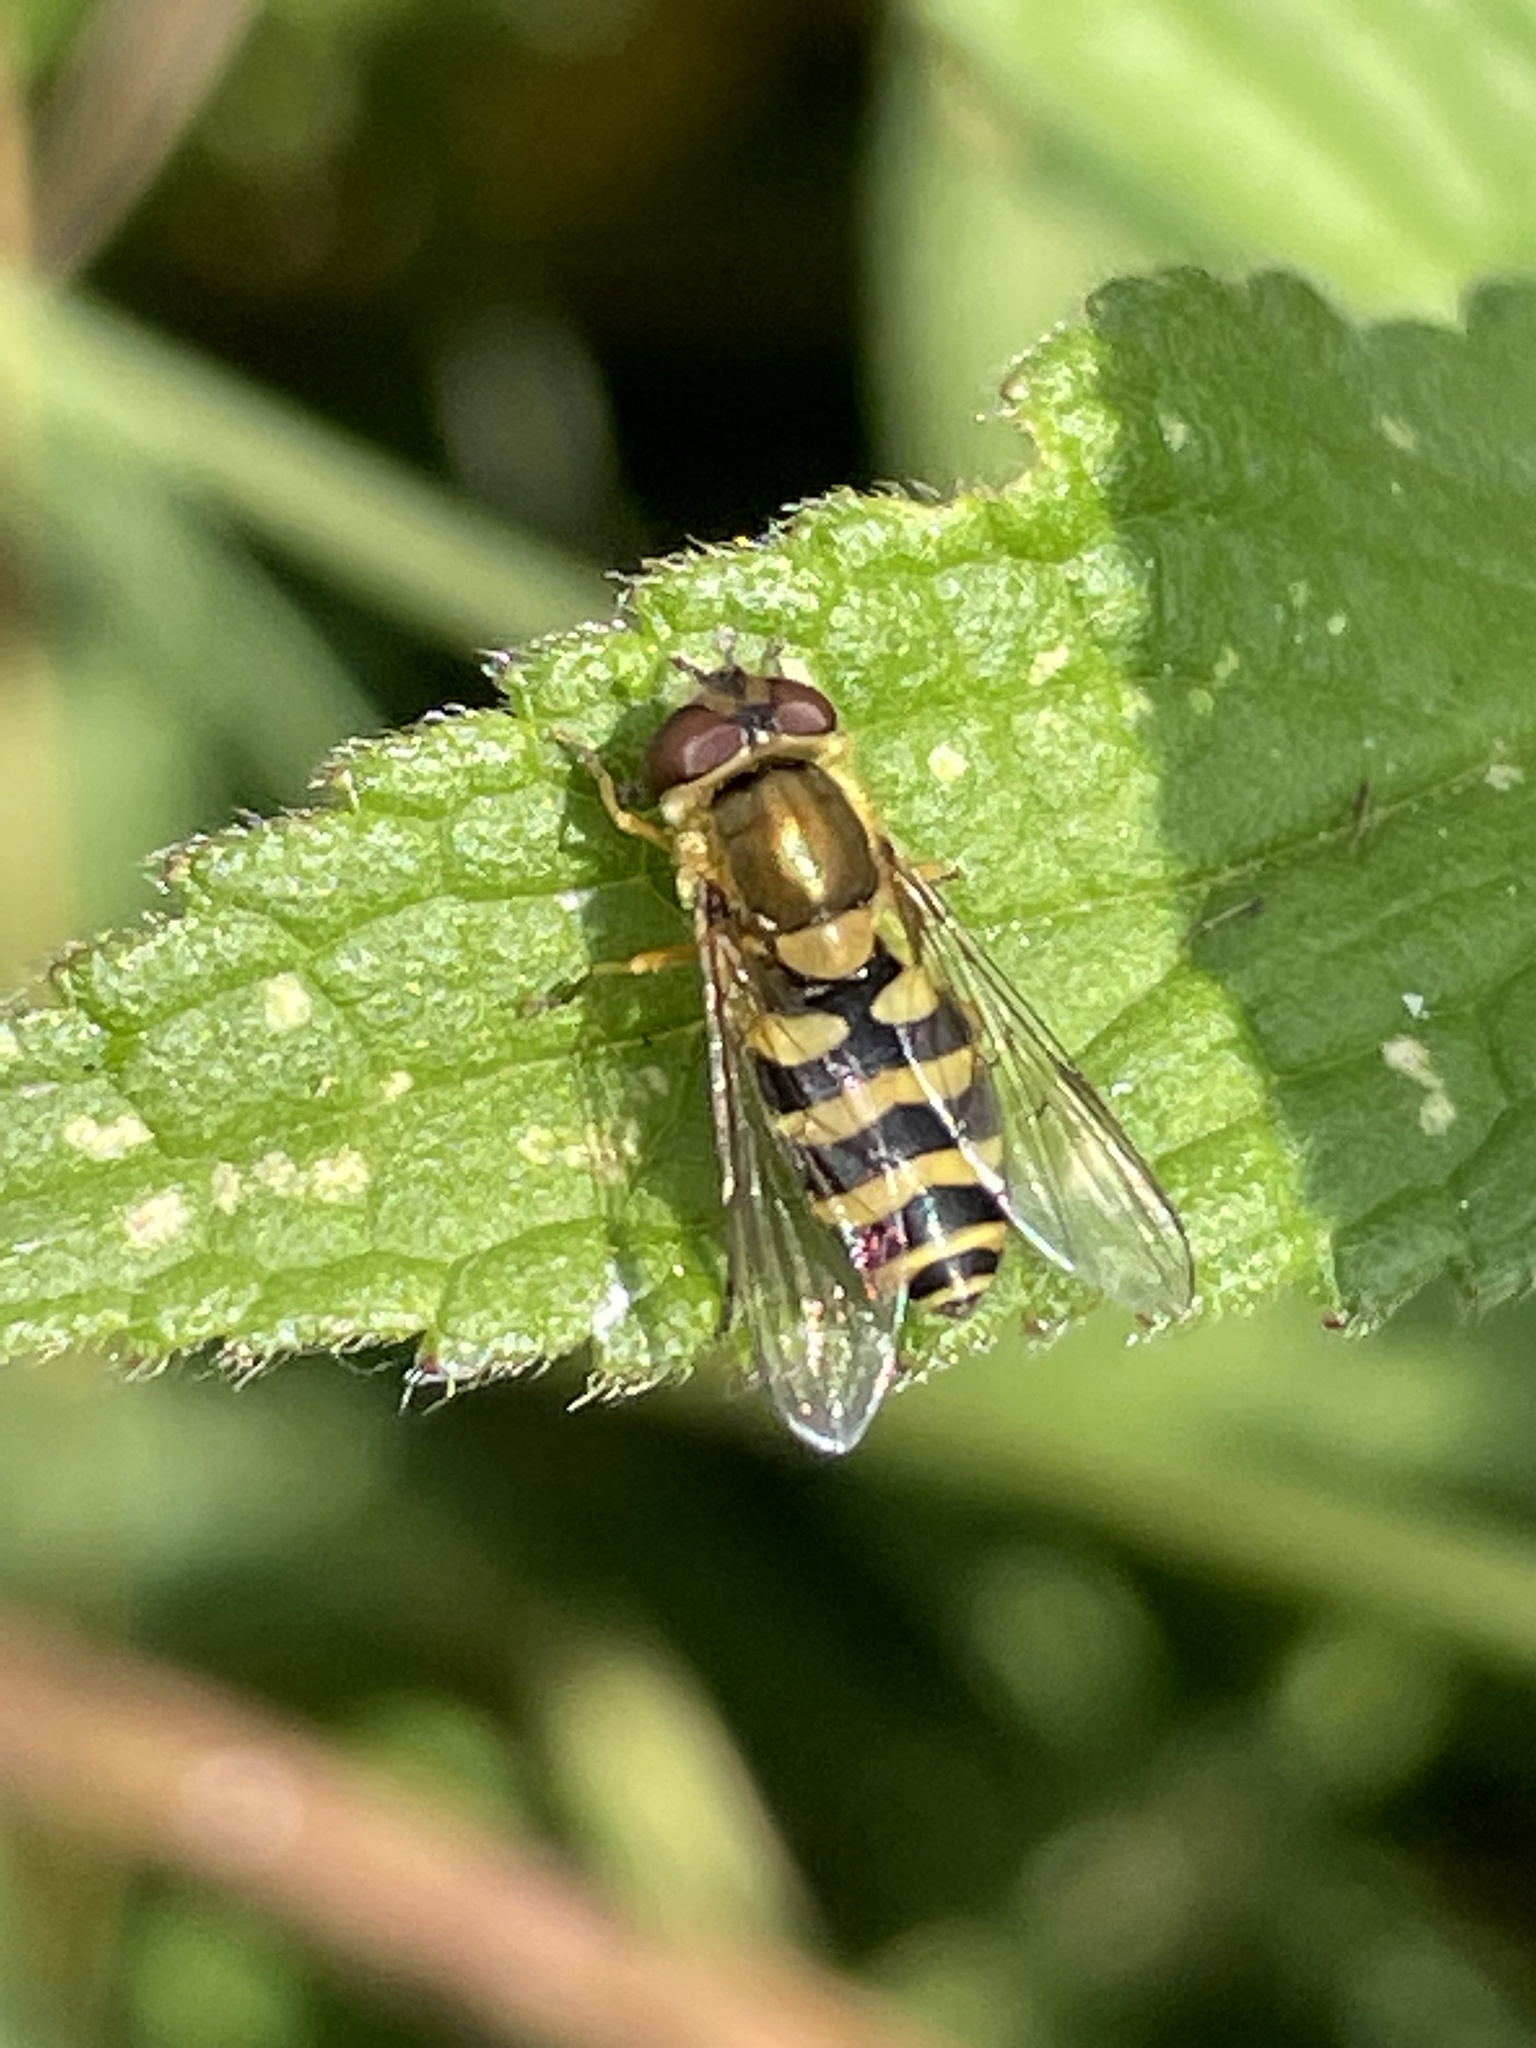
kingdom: Animalia
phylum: Arthropoda
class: Insecta
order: Diptera
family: Syrphidae
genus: Syrphus
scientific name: Syrphus
